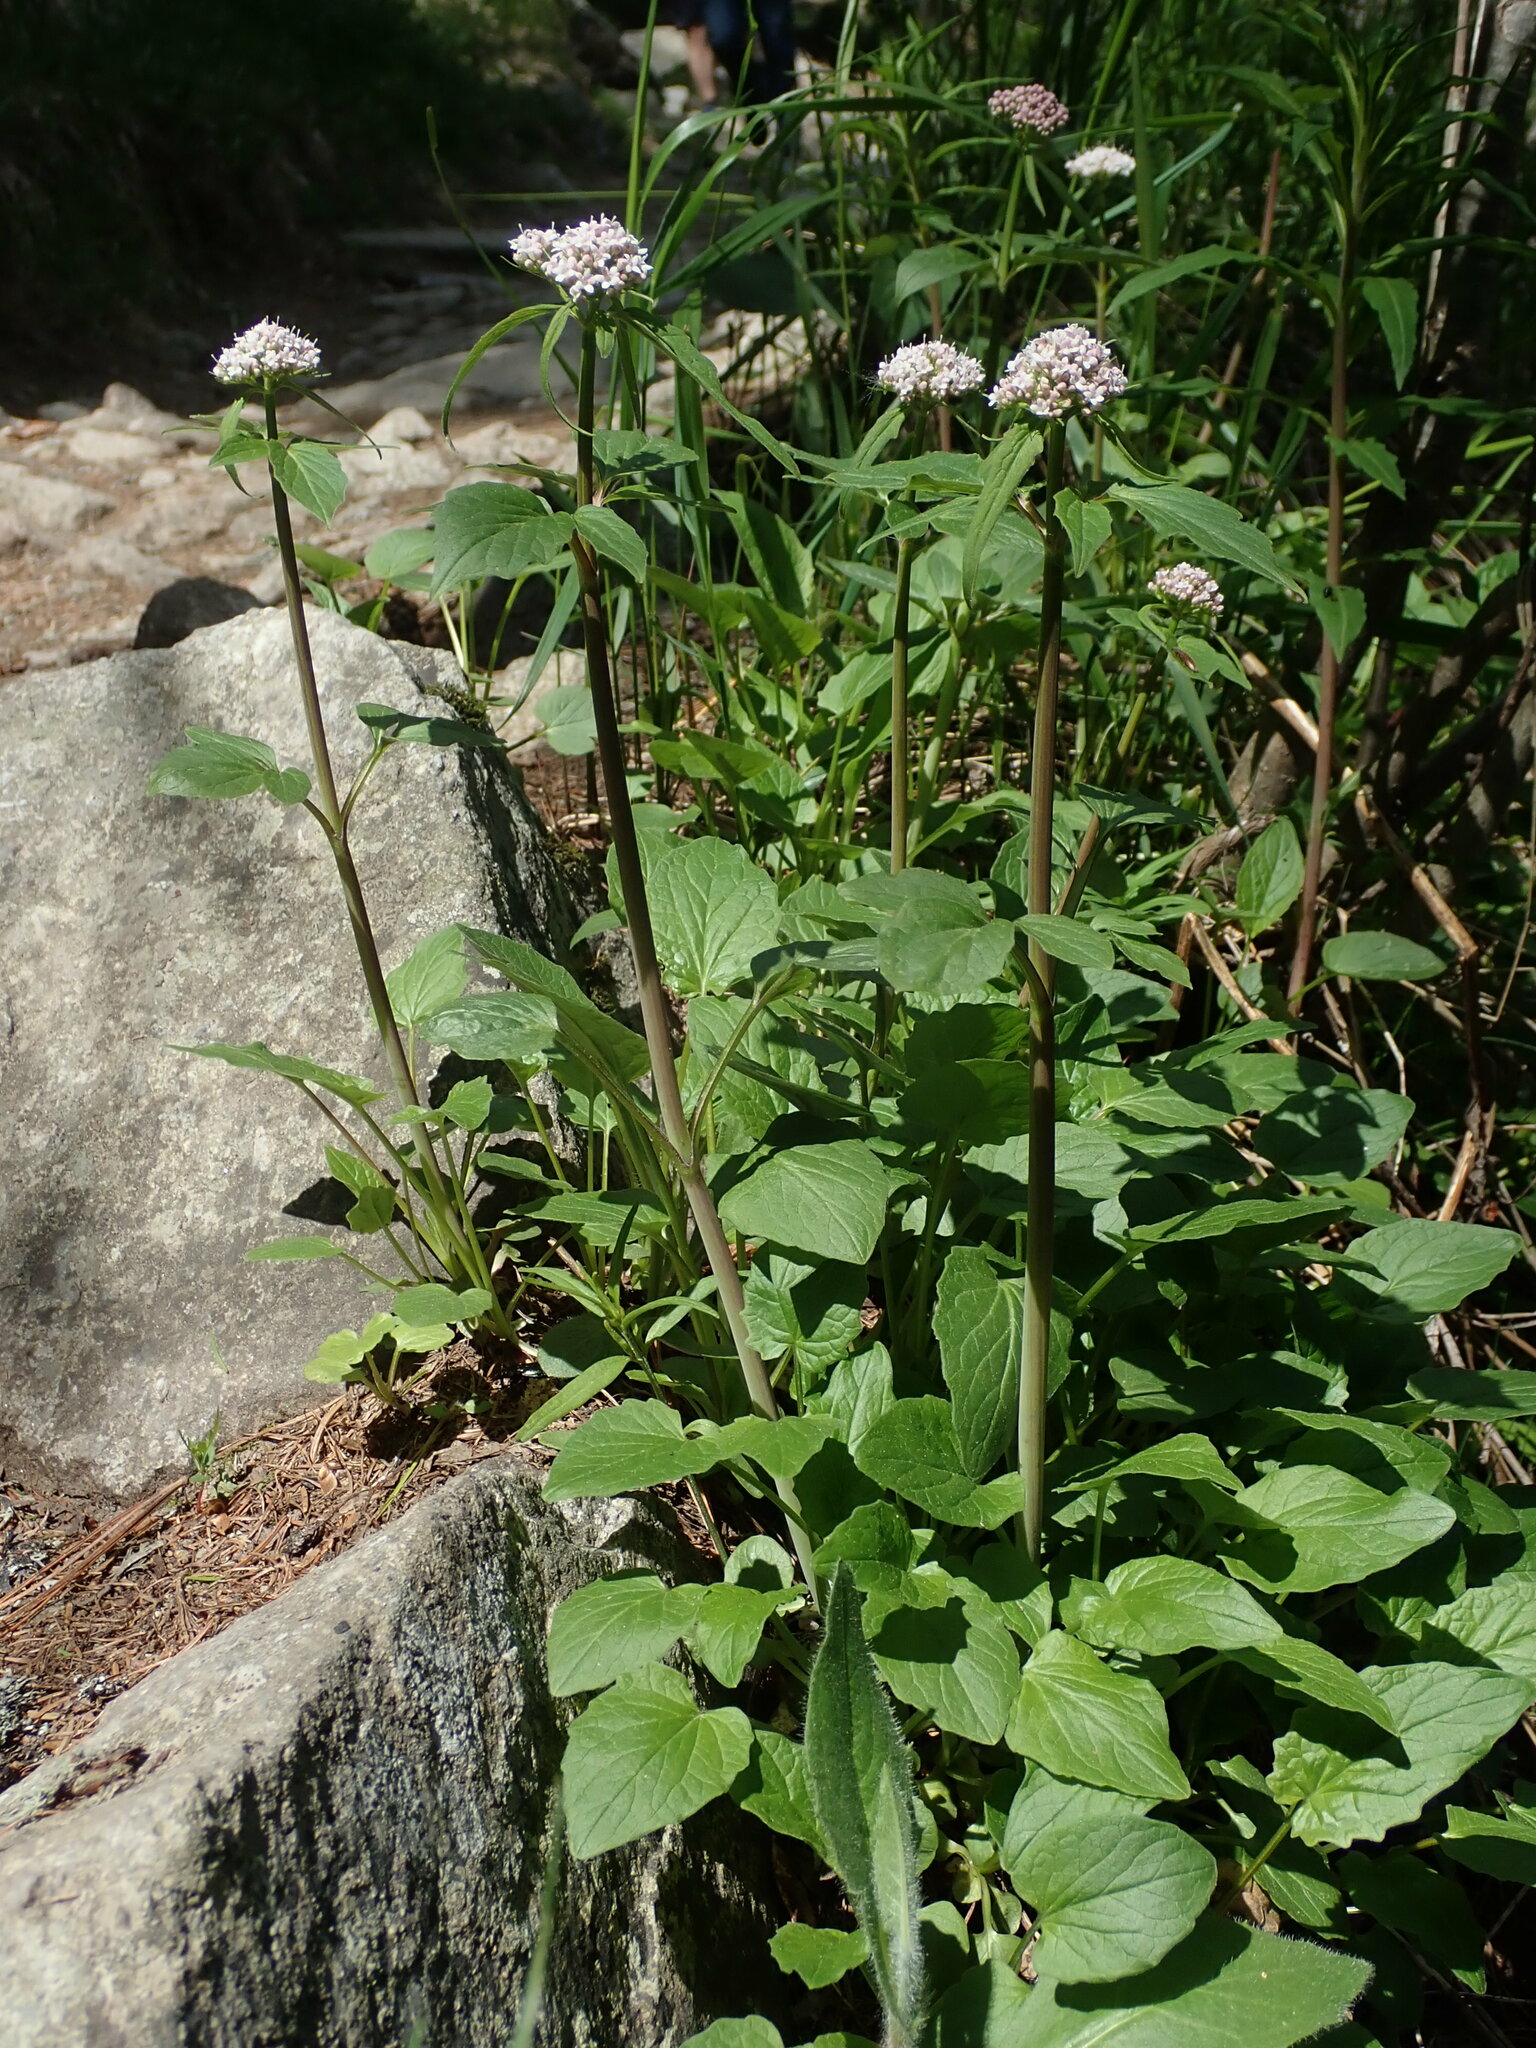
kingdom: Plantae
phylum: Tracheophyta
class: Magnoliopsida
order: Dipsacales
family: Caprifoliaceae
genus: Valeriana
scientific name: Valeriana tripteris
